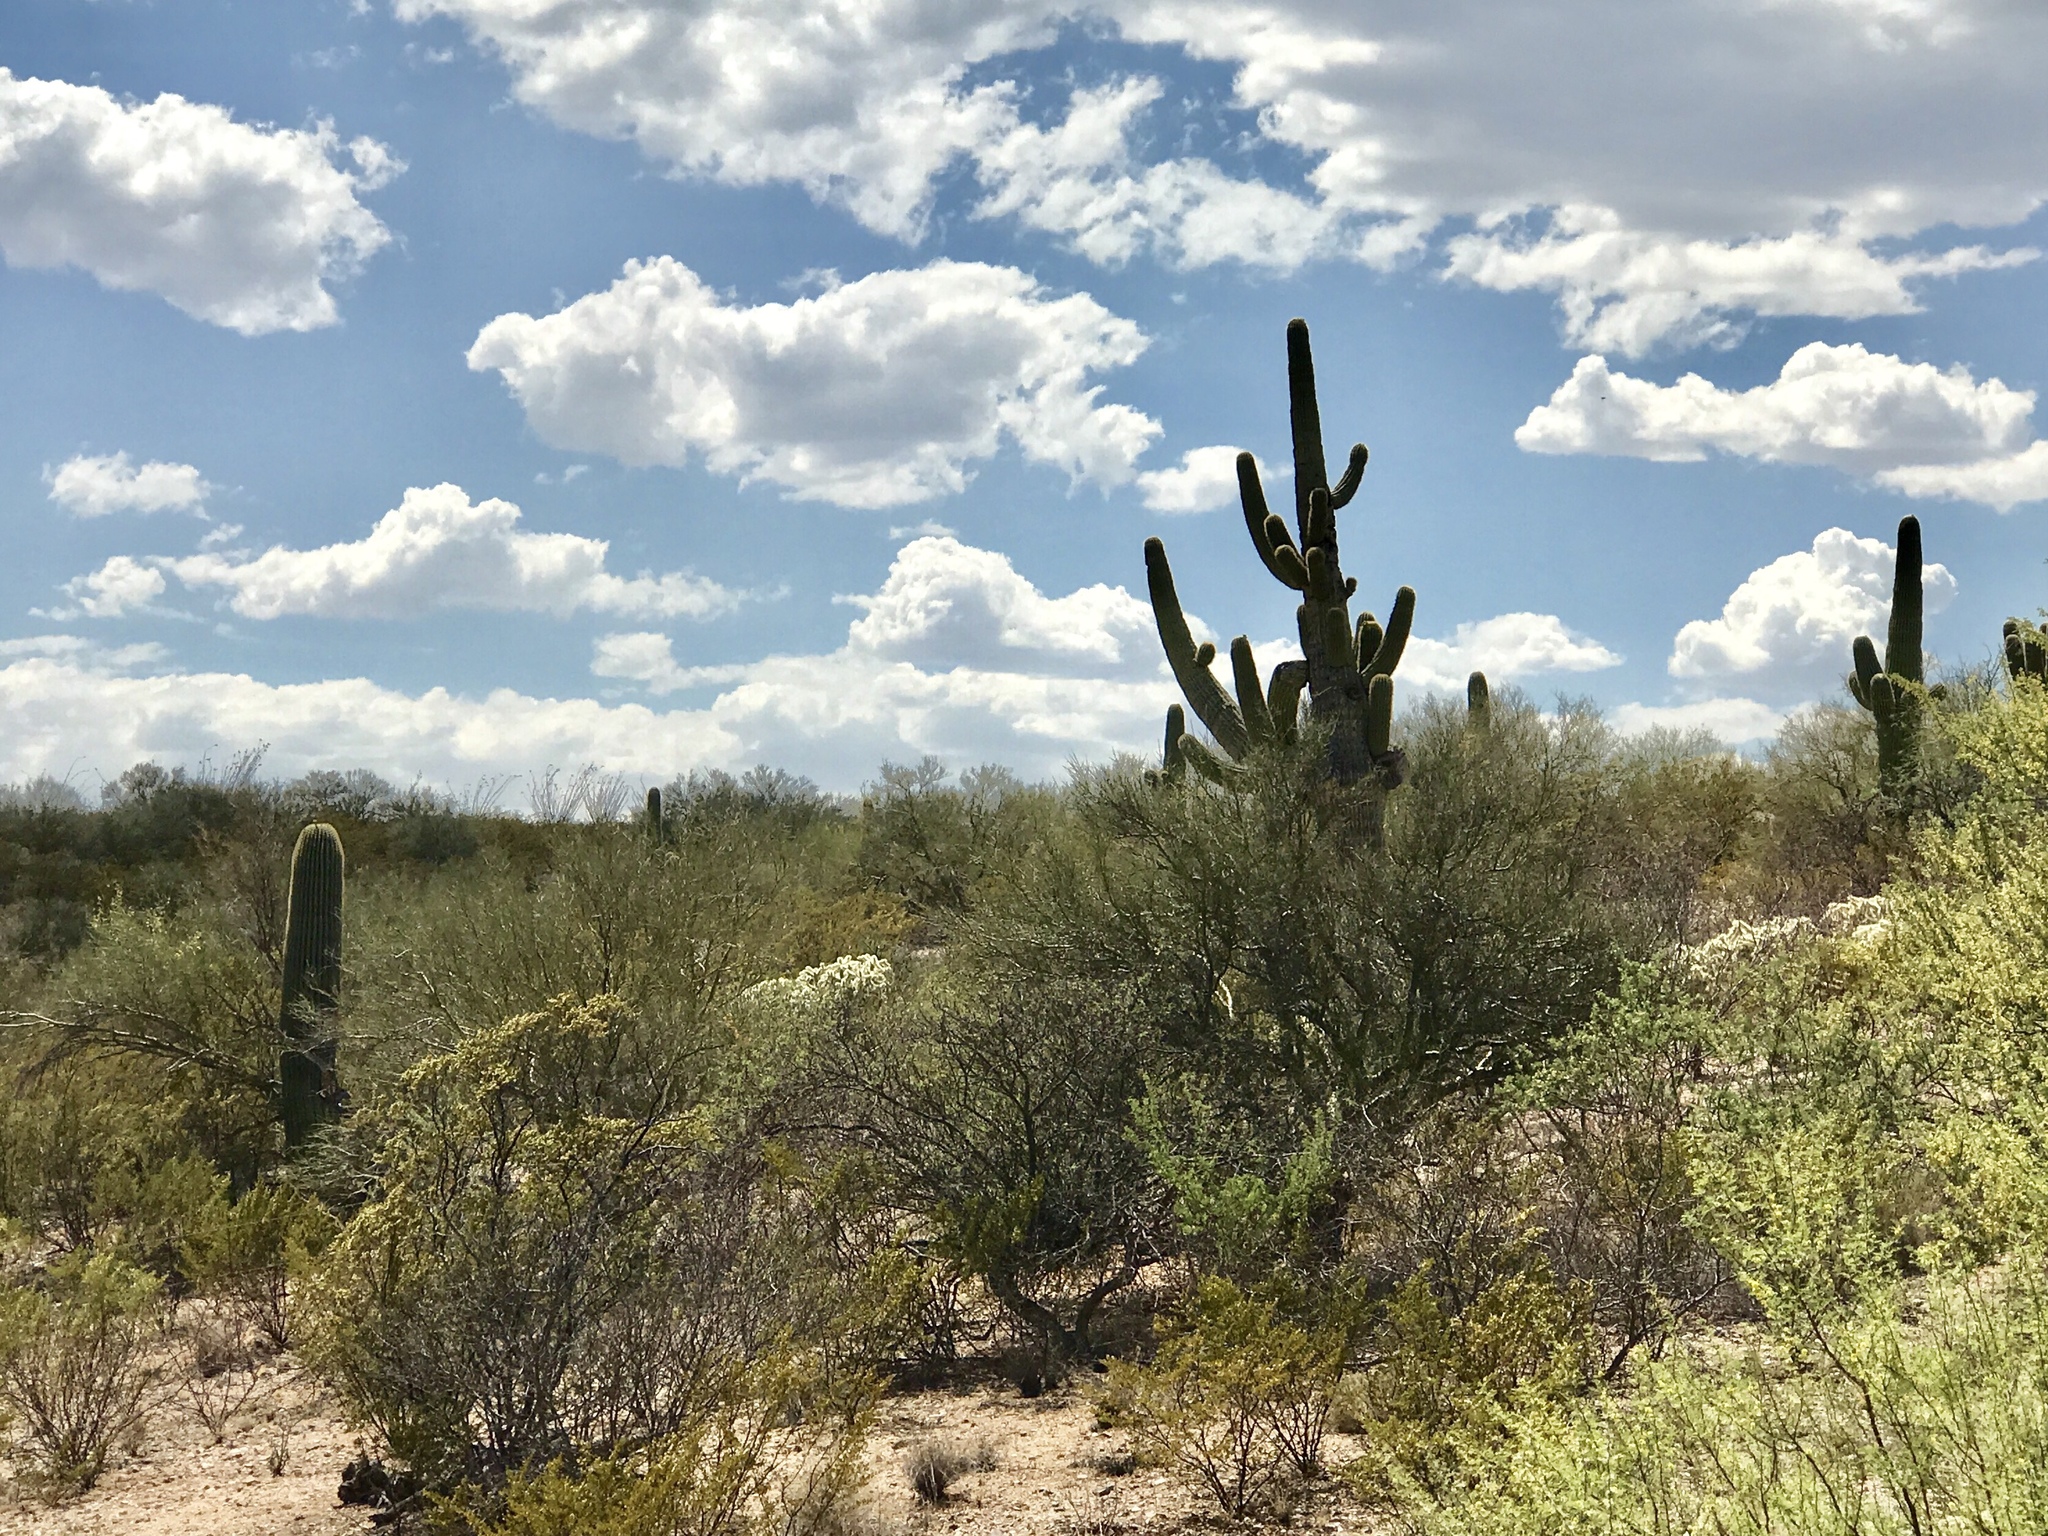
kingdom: Plantae
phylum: Tracheophyta
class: Magnoliopsida
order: Caryophyllales
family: Cactaceae
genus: Carnegiea
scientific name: Carnegiea gigantea
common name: Saguaro
